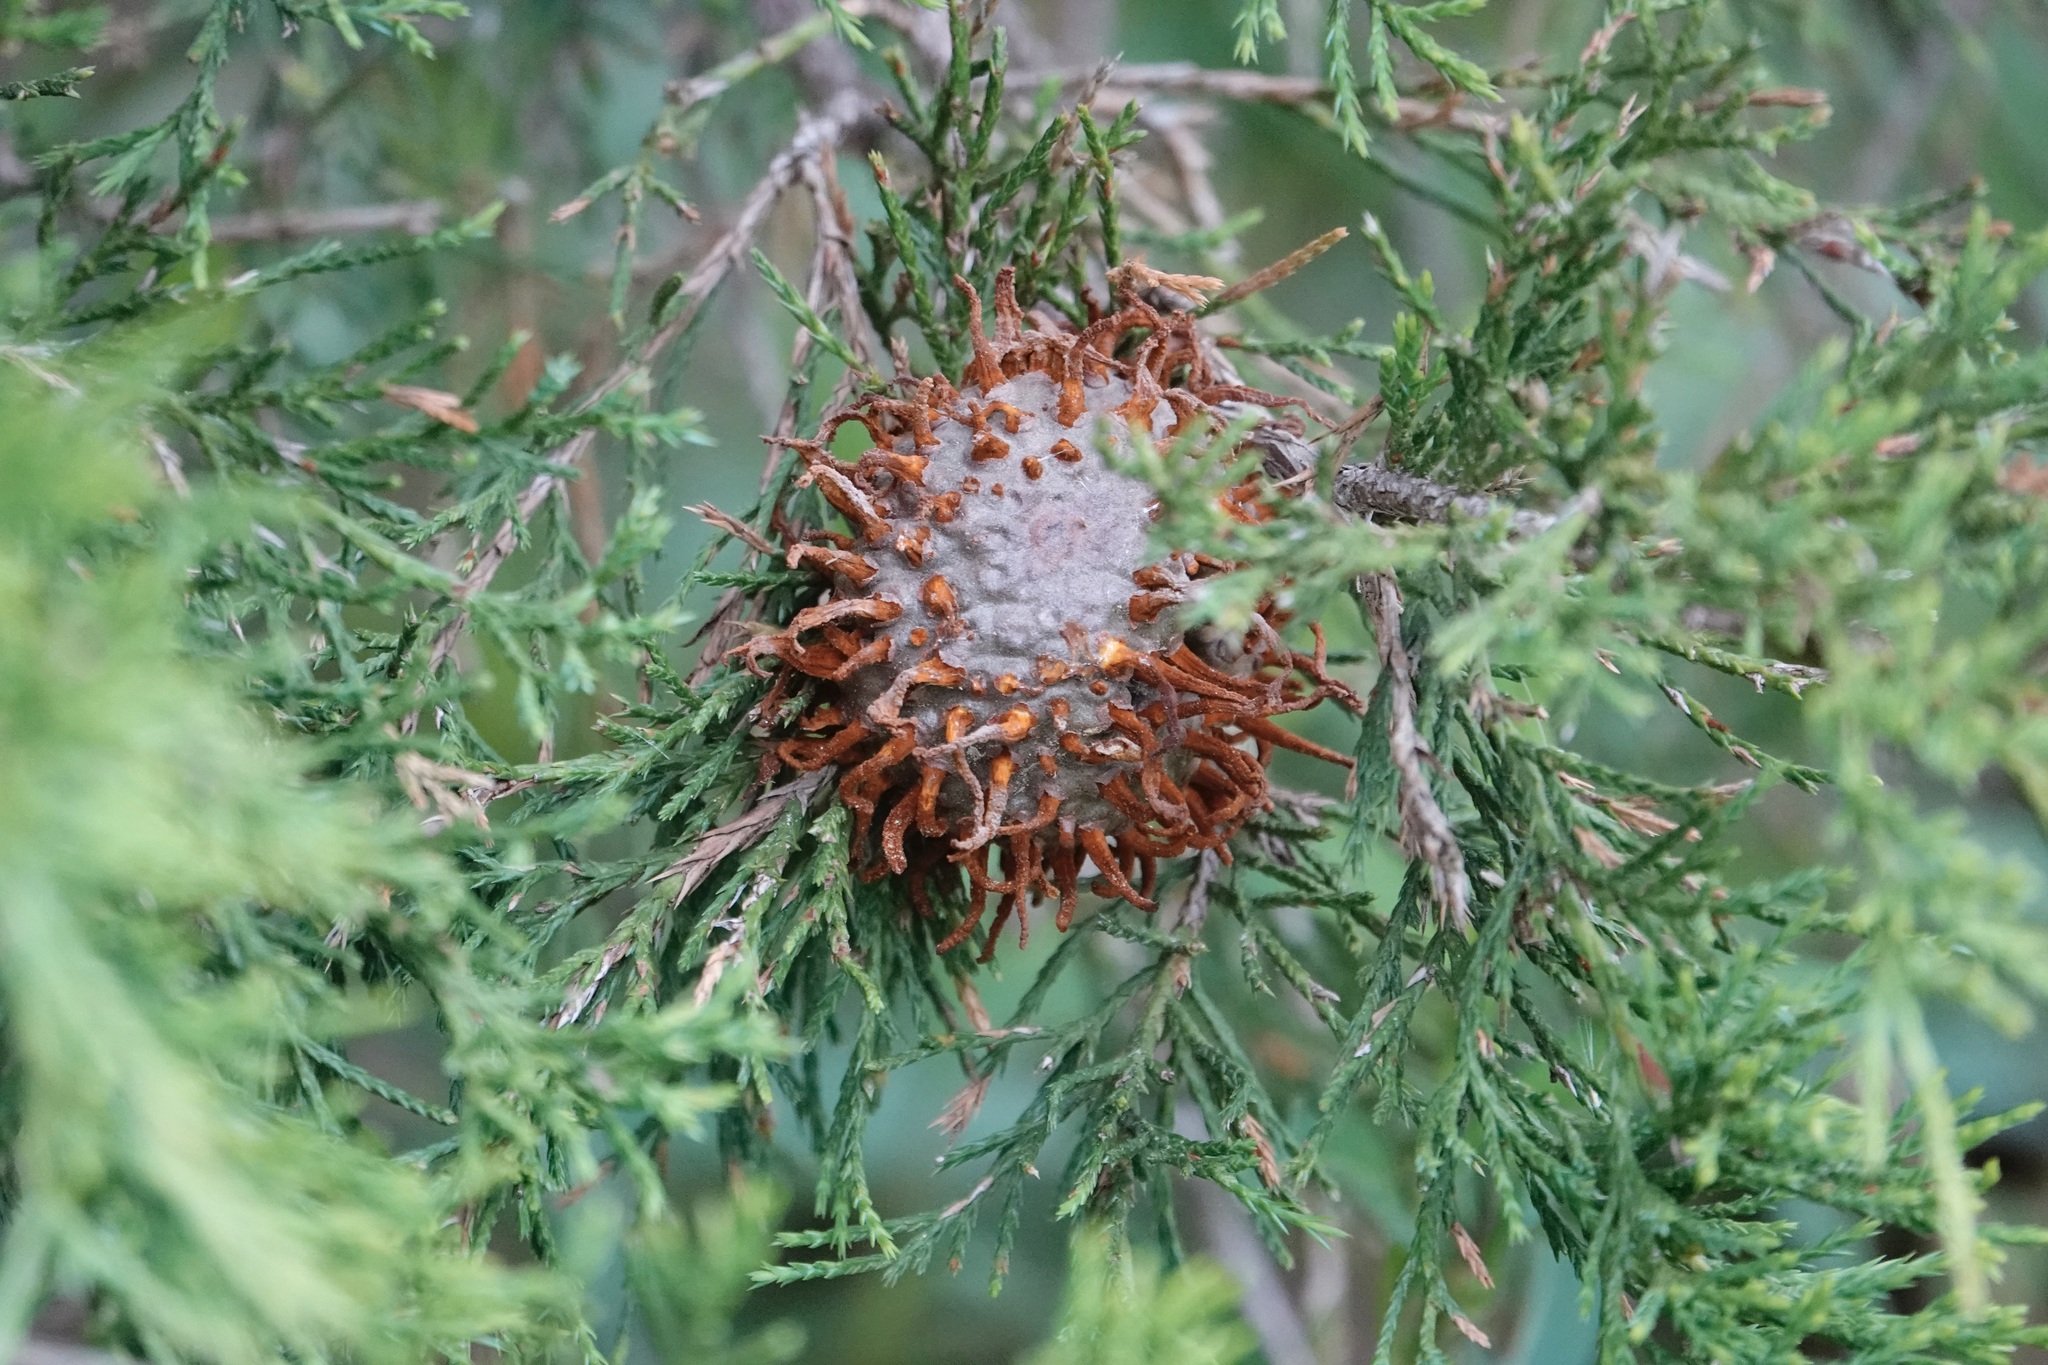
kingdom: Fungi
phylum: Basidiomycota
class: Pucciniomycetes
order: Pucciniales
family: Gymnosporangiaceae
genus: Gymnosporangium
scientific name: Gymnosporangium juniperi-virginianae
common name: Juniper-apple rust
